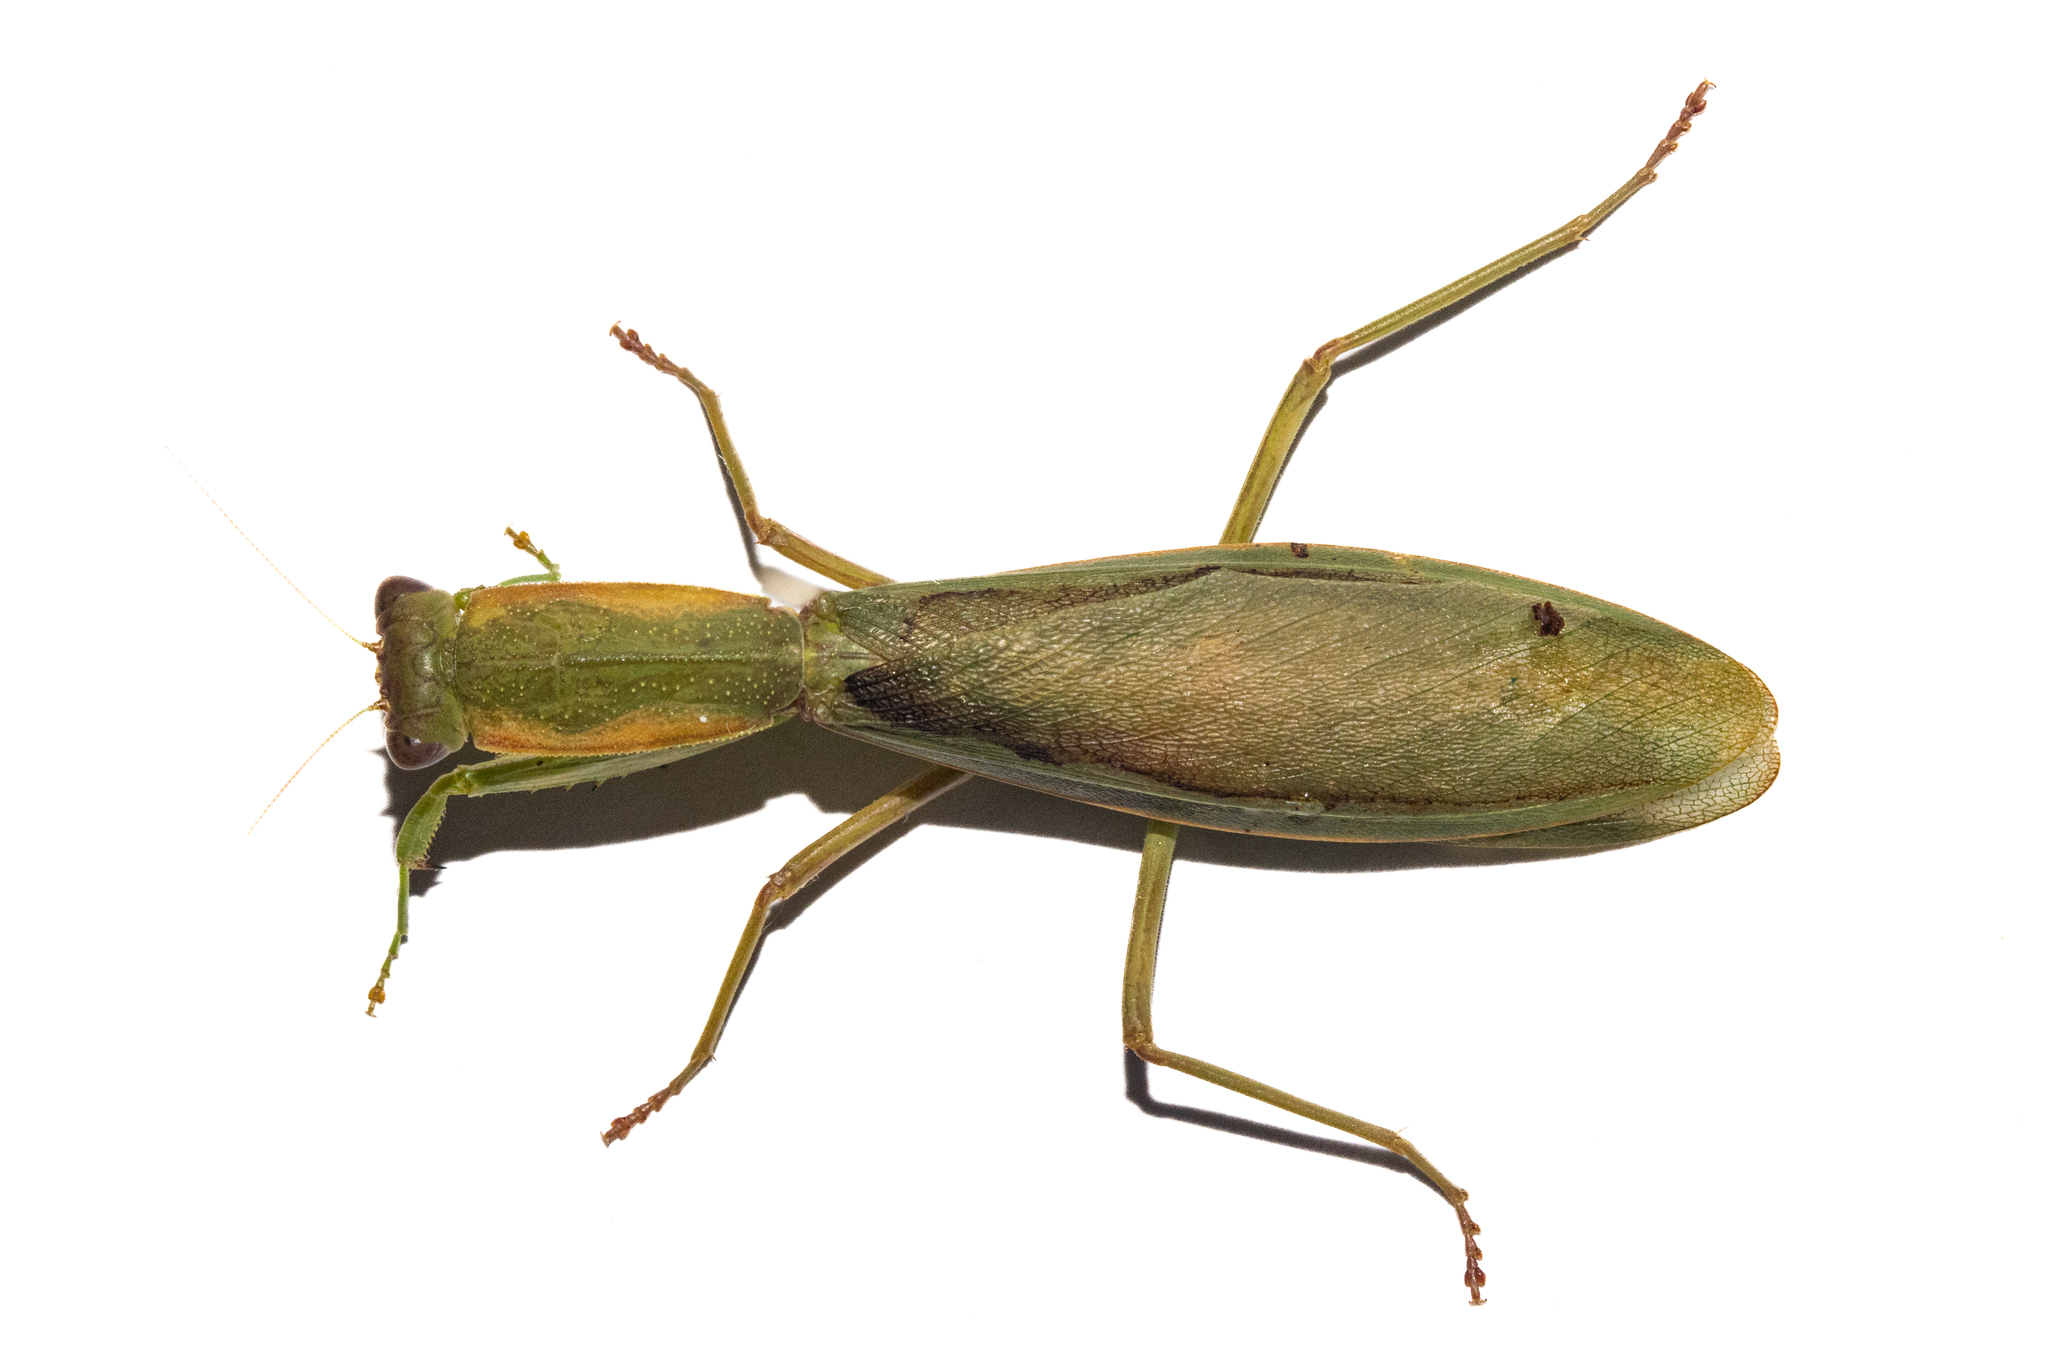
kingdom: Animalia
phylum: Arthropoda
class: Insecta
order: Mantodea
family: Mantidae
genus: Orthodera
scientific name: Orthodera novaezealandiae
